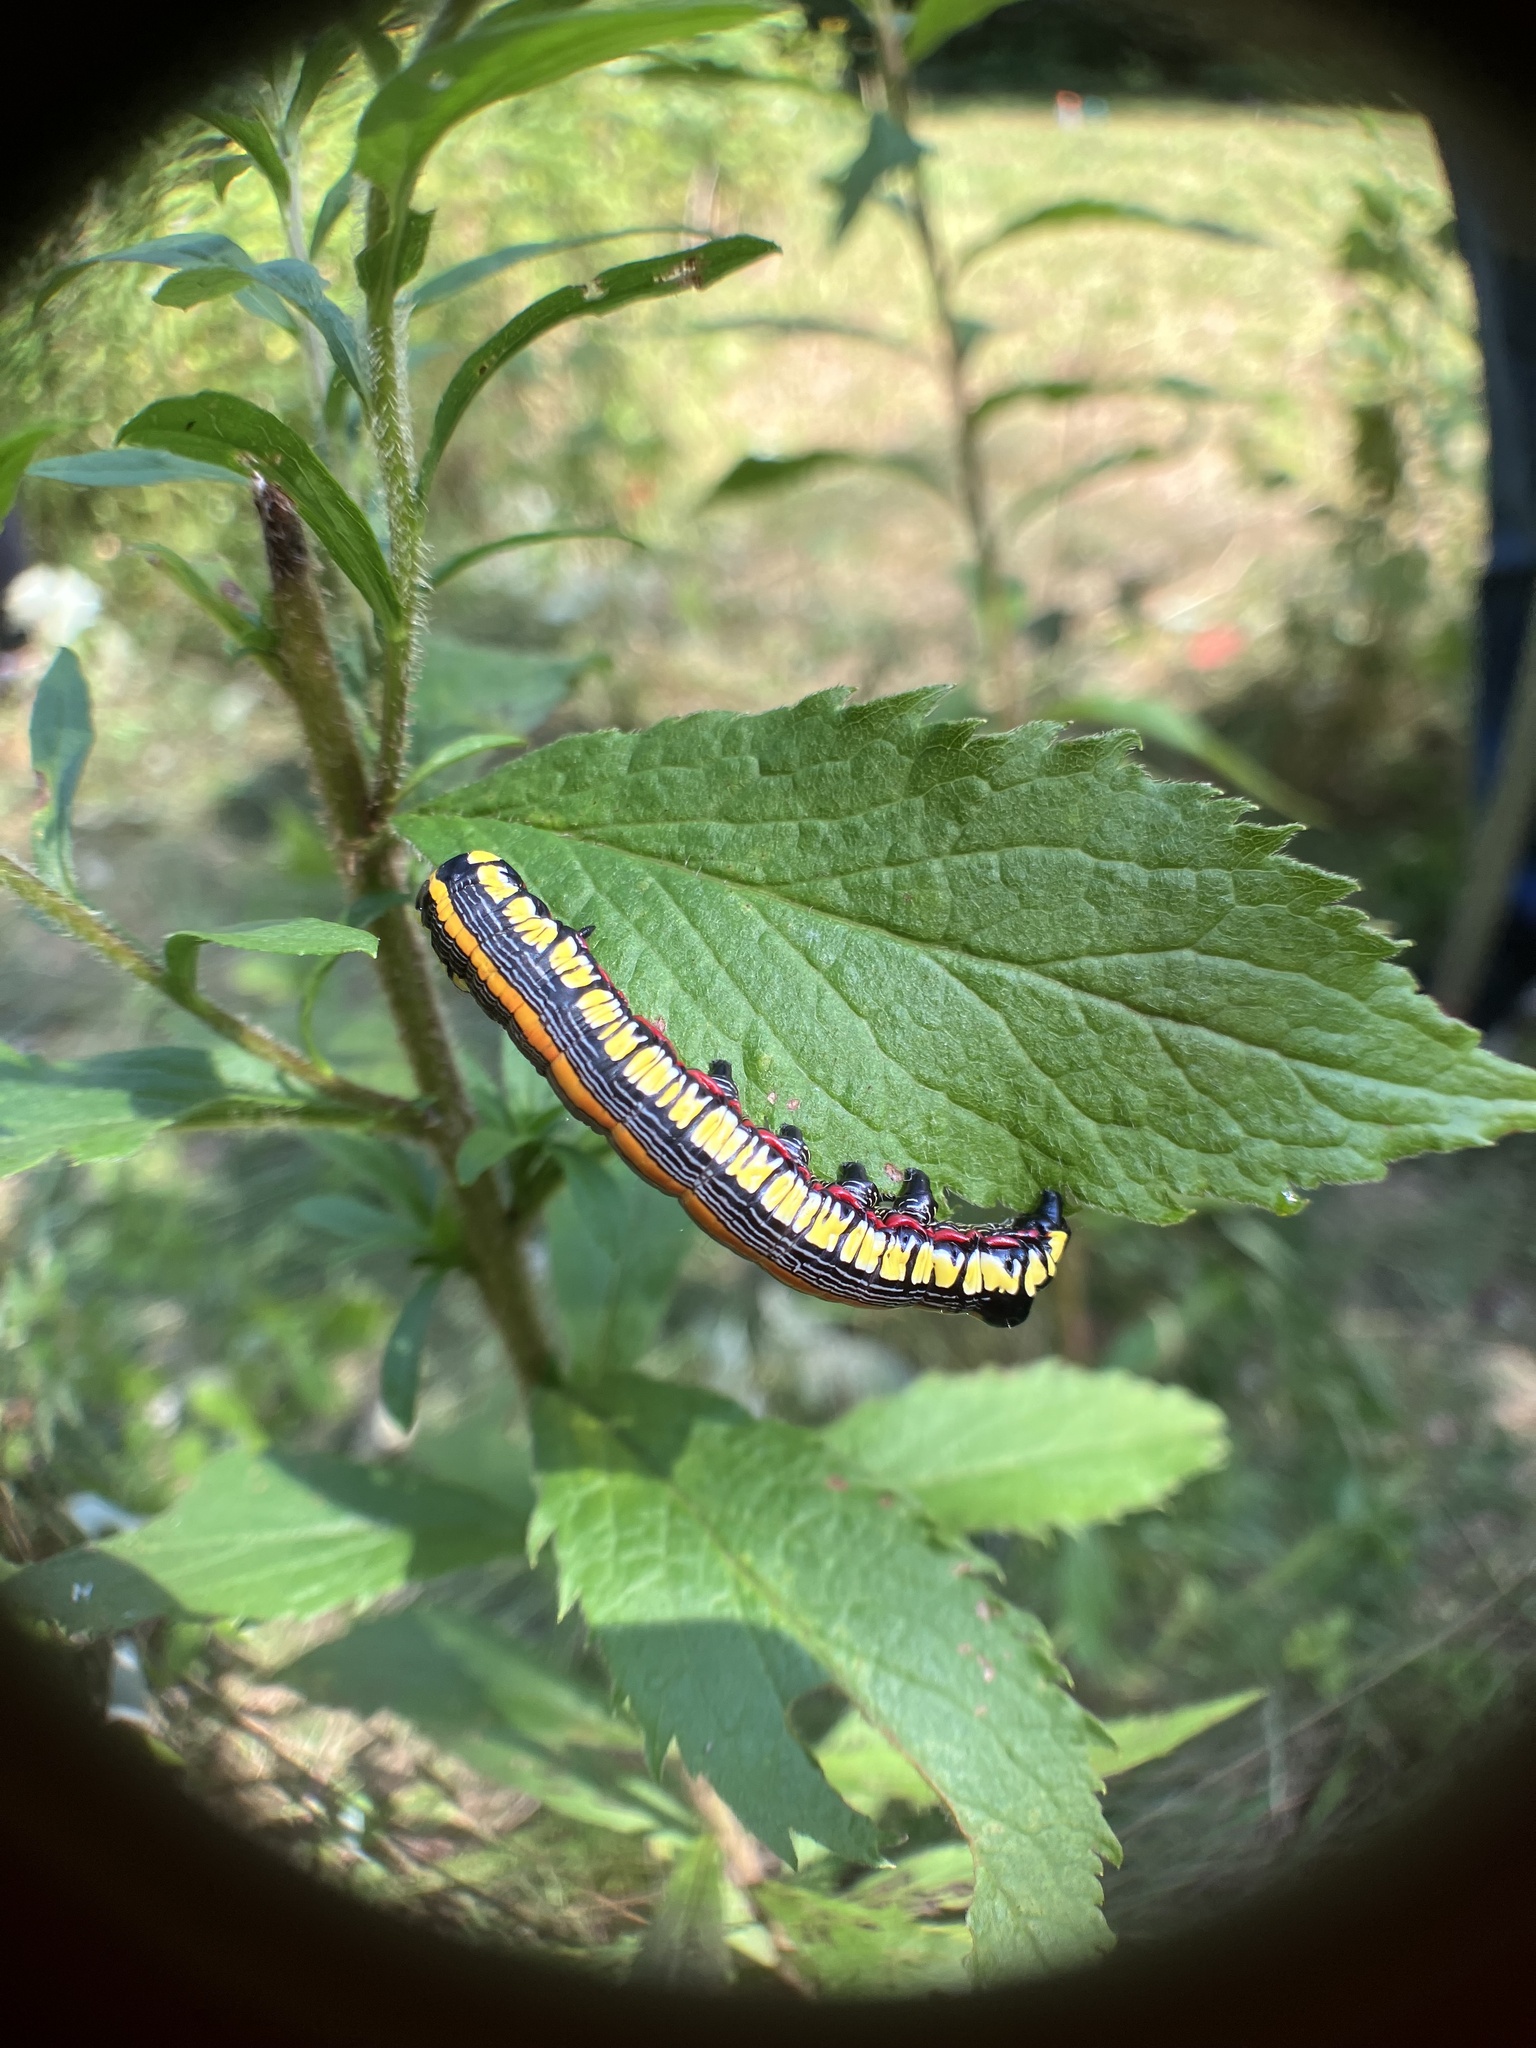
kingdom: Animalia
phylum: Arthropoda
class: Insecta
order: Lepidoptera
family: Noctuidae
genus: Cucullia
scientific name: Cucullia convexipennis
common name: Brown-hooded owlet
